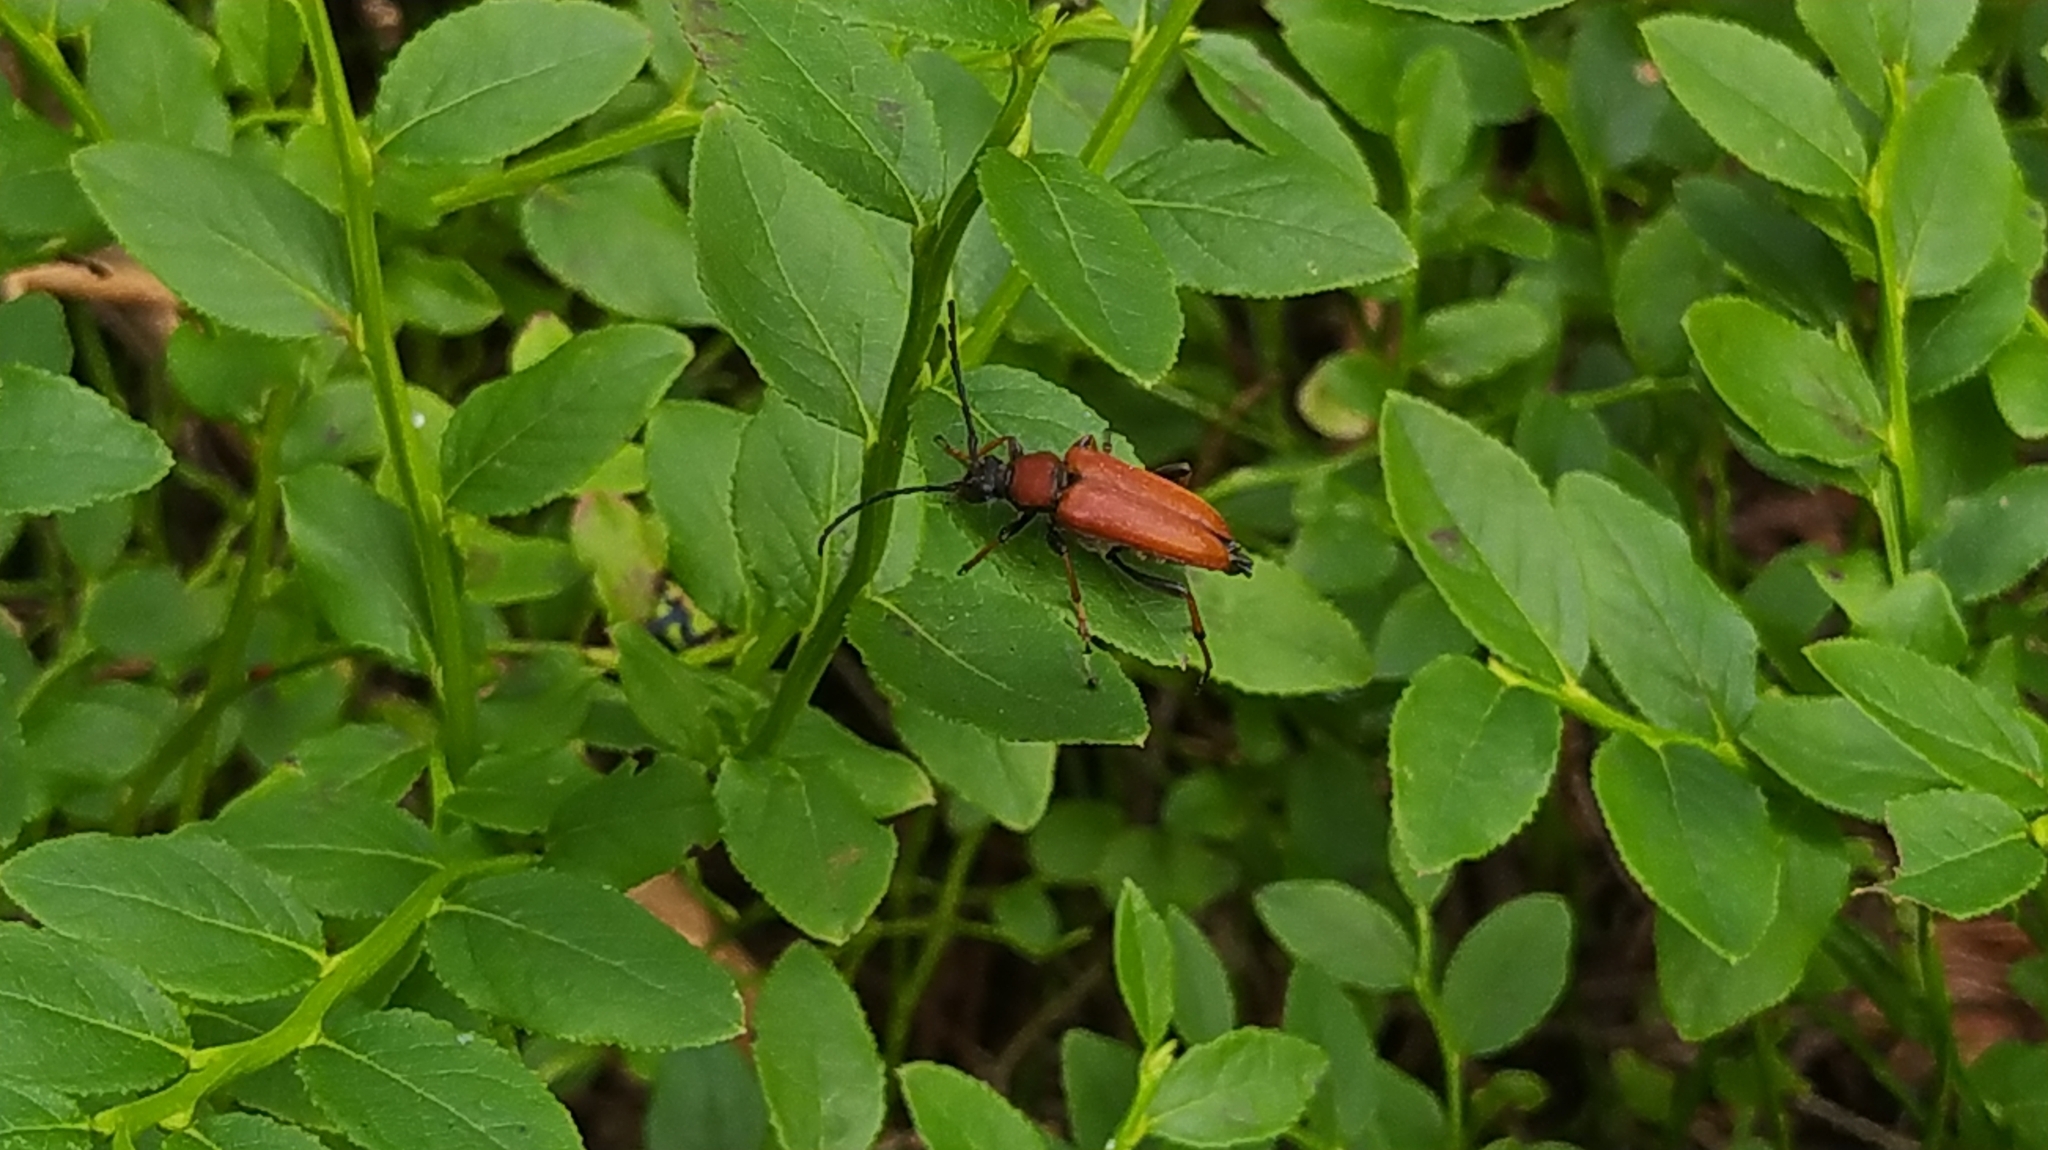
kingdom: Animalia
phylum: Arthropoda
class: Insecta
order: Coleoptera
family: Cerambycidae
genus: Stictoleptura
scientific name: Stictoleptura rubra
